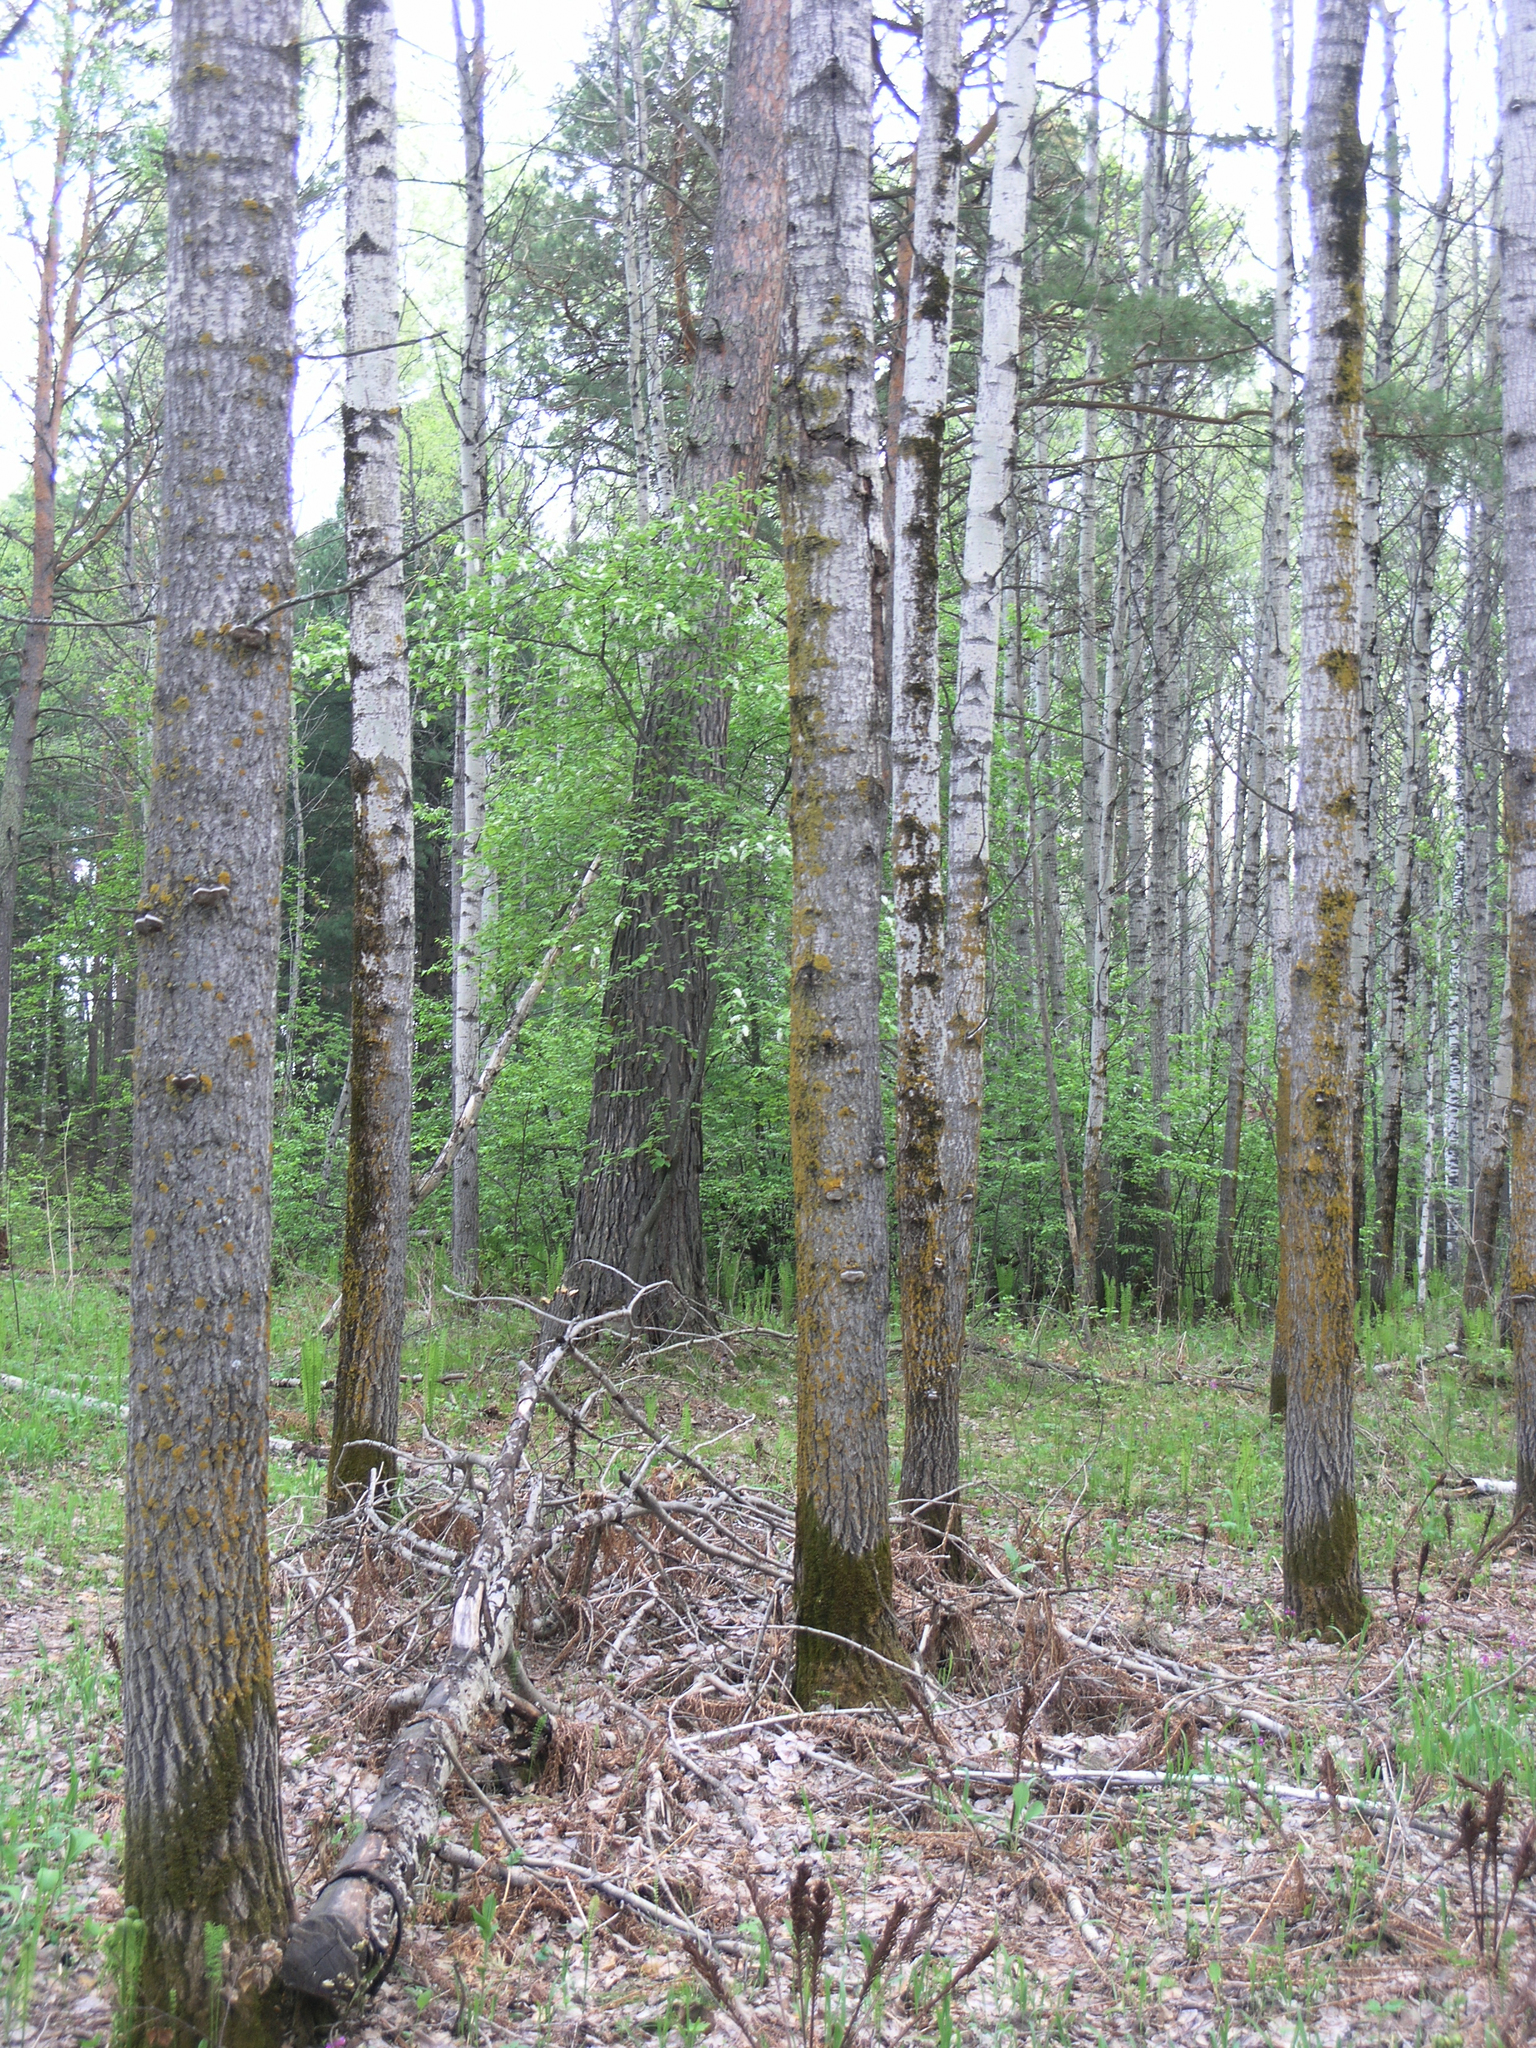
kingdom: Plantae
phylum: Tracheophyta
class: Magnoliopsida
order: Malpighiales
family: Salicaceae
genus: Populus
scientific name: Populus tremula
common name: European aspen
